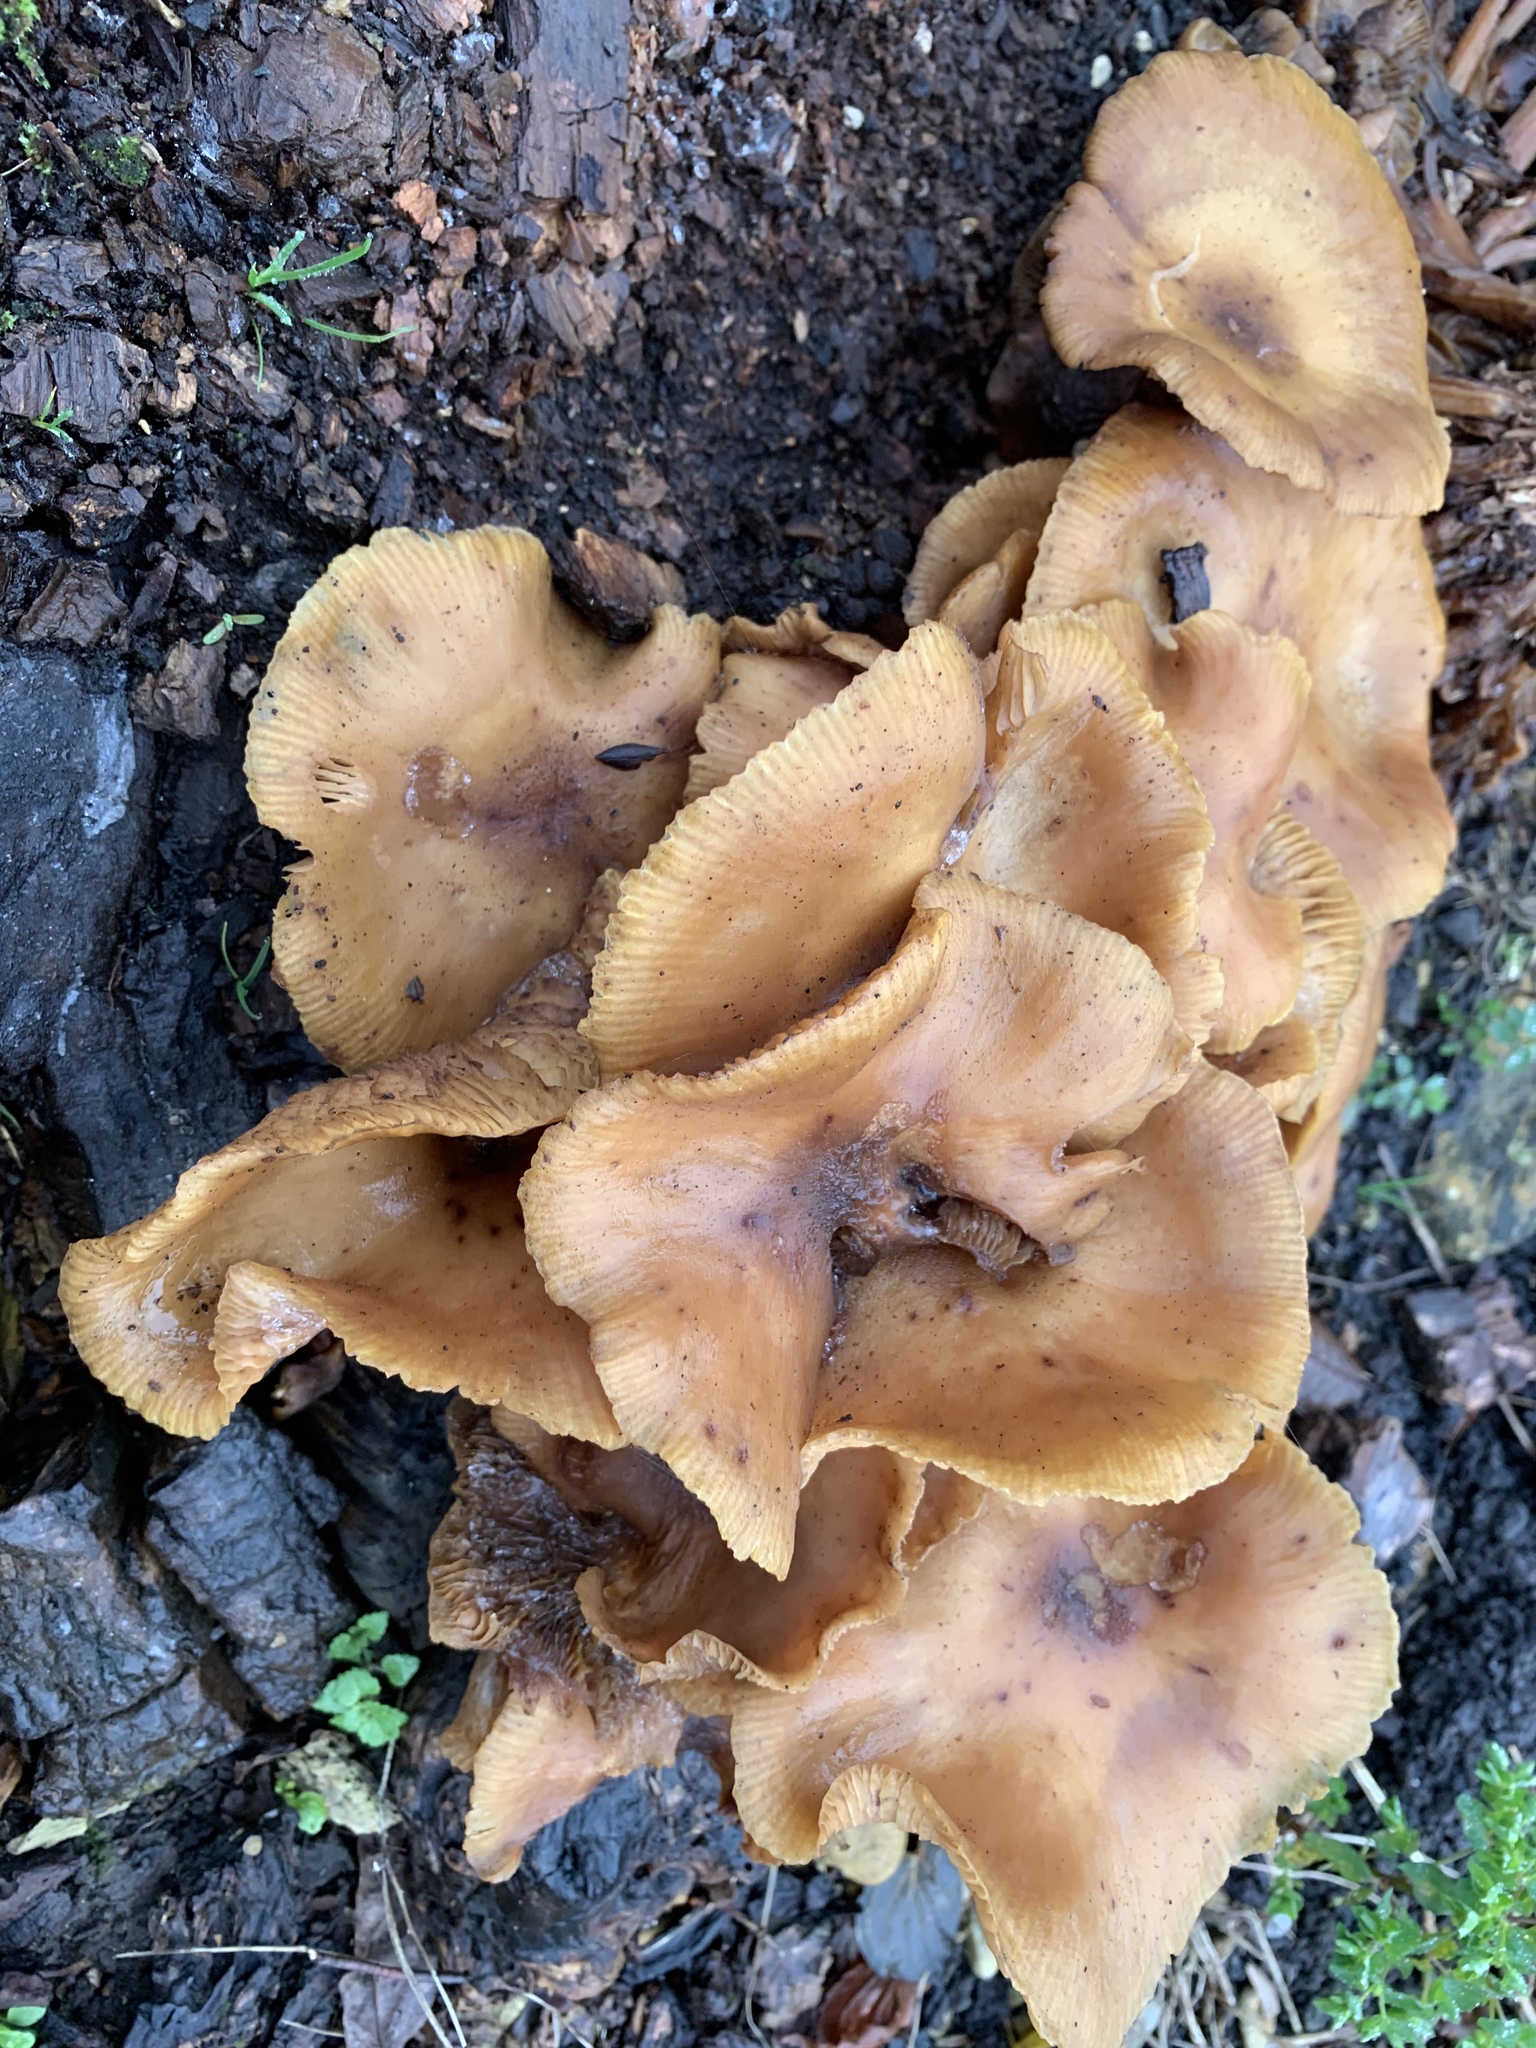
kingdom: Fungi
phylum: Basidiomycota
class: Agaricomycetes
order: Agaricales
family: Physalacriaceae
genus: Armillaria
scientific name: Armillaria mellea
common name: Honey fungus
